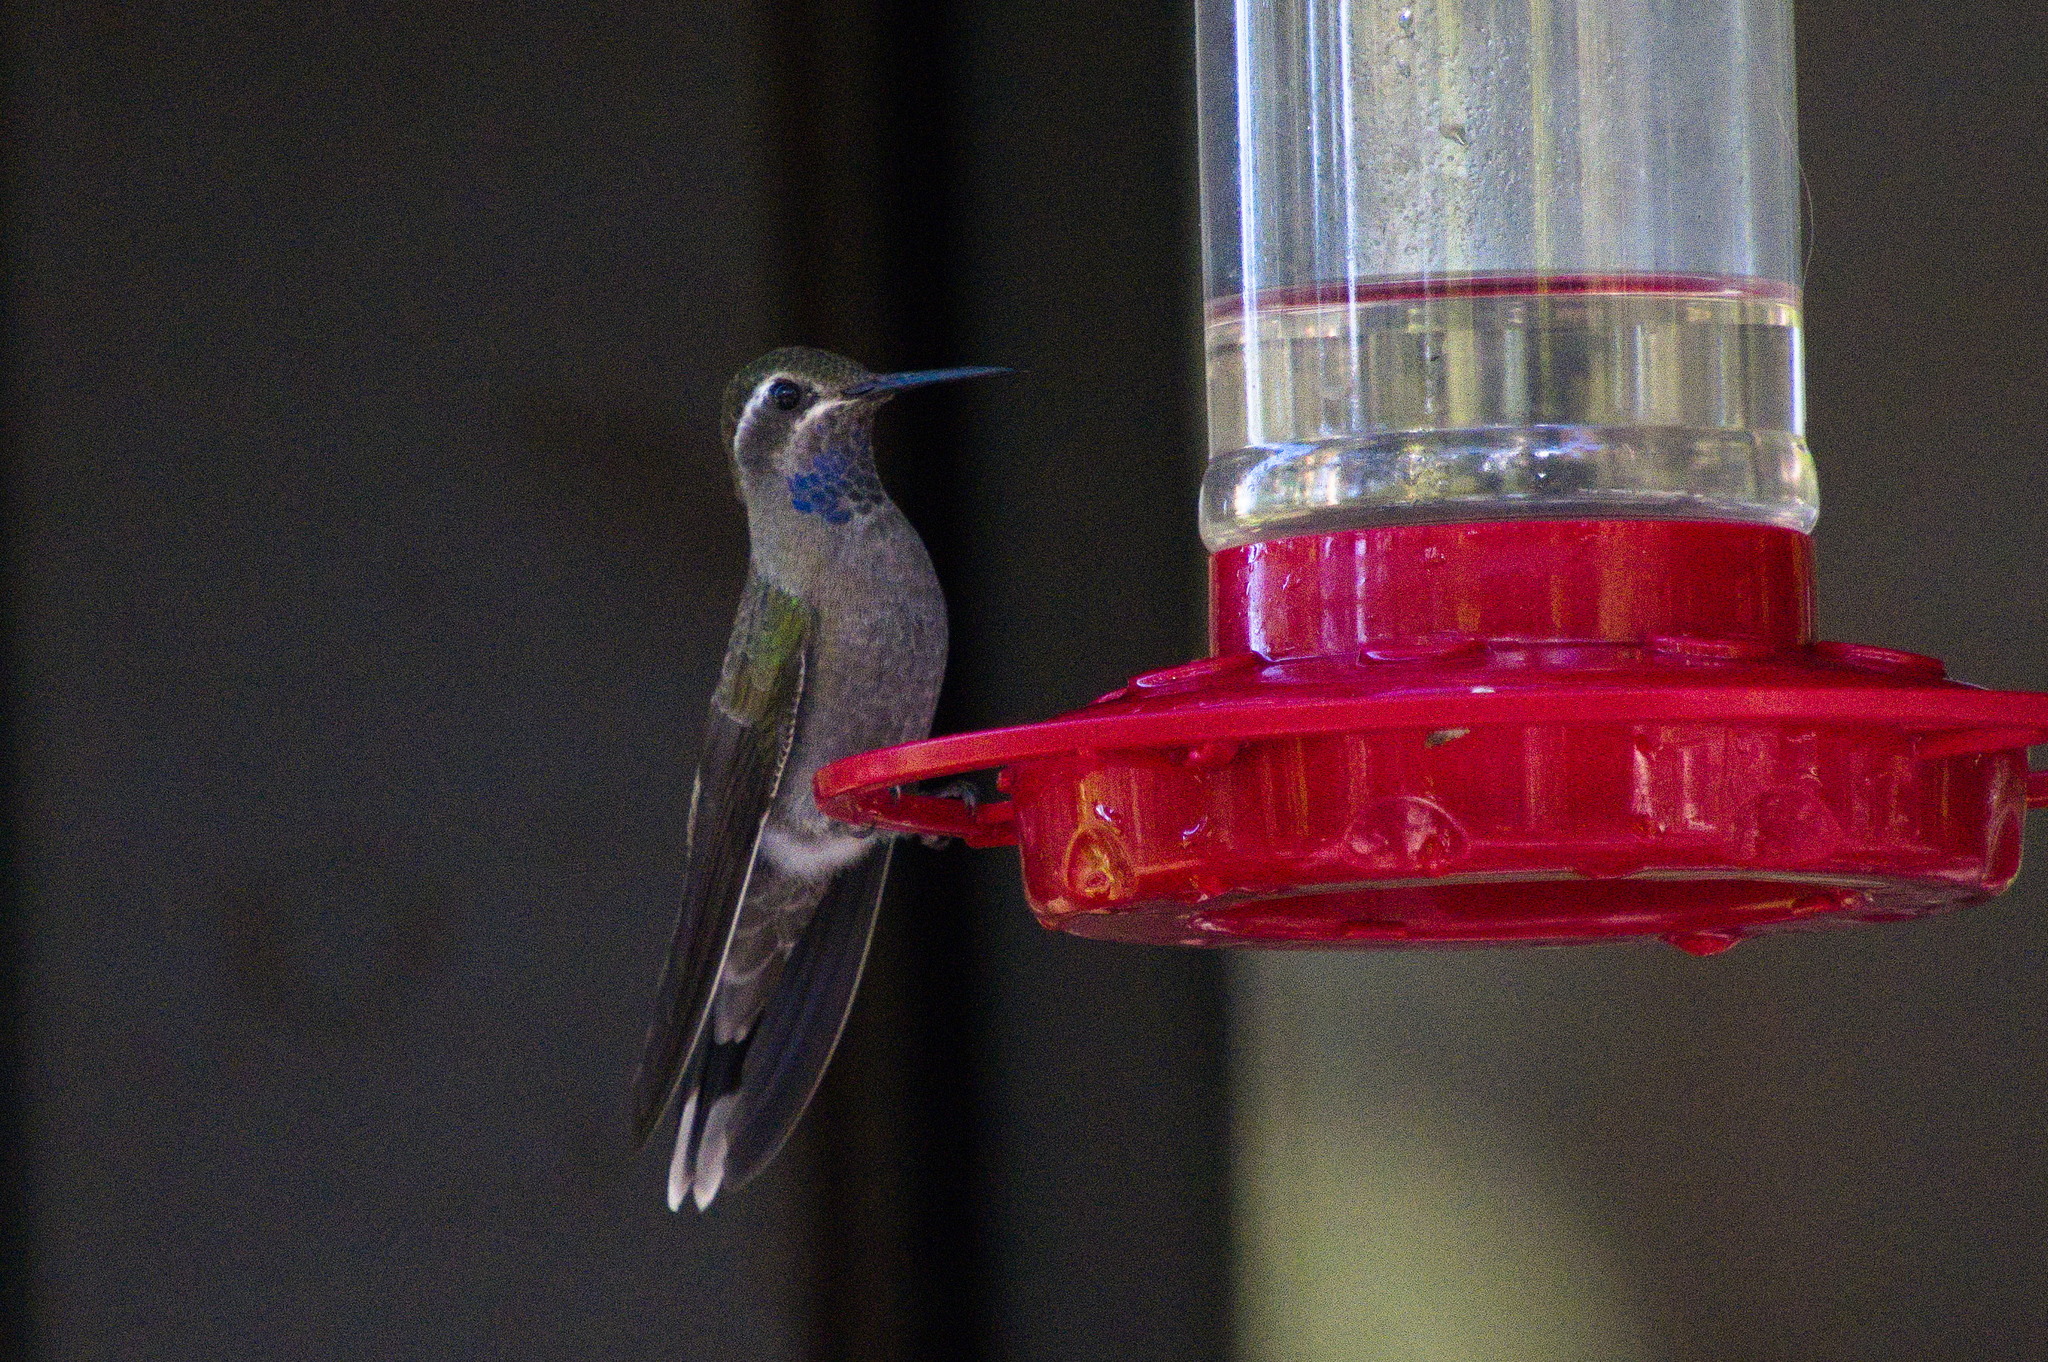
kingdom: Animalia
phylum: Chordata
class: Aves
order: Apodiformes
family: Trochilidae
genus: Lampornis
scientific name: Lampornis clemenciae
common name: Blue-throated mountaingem
